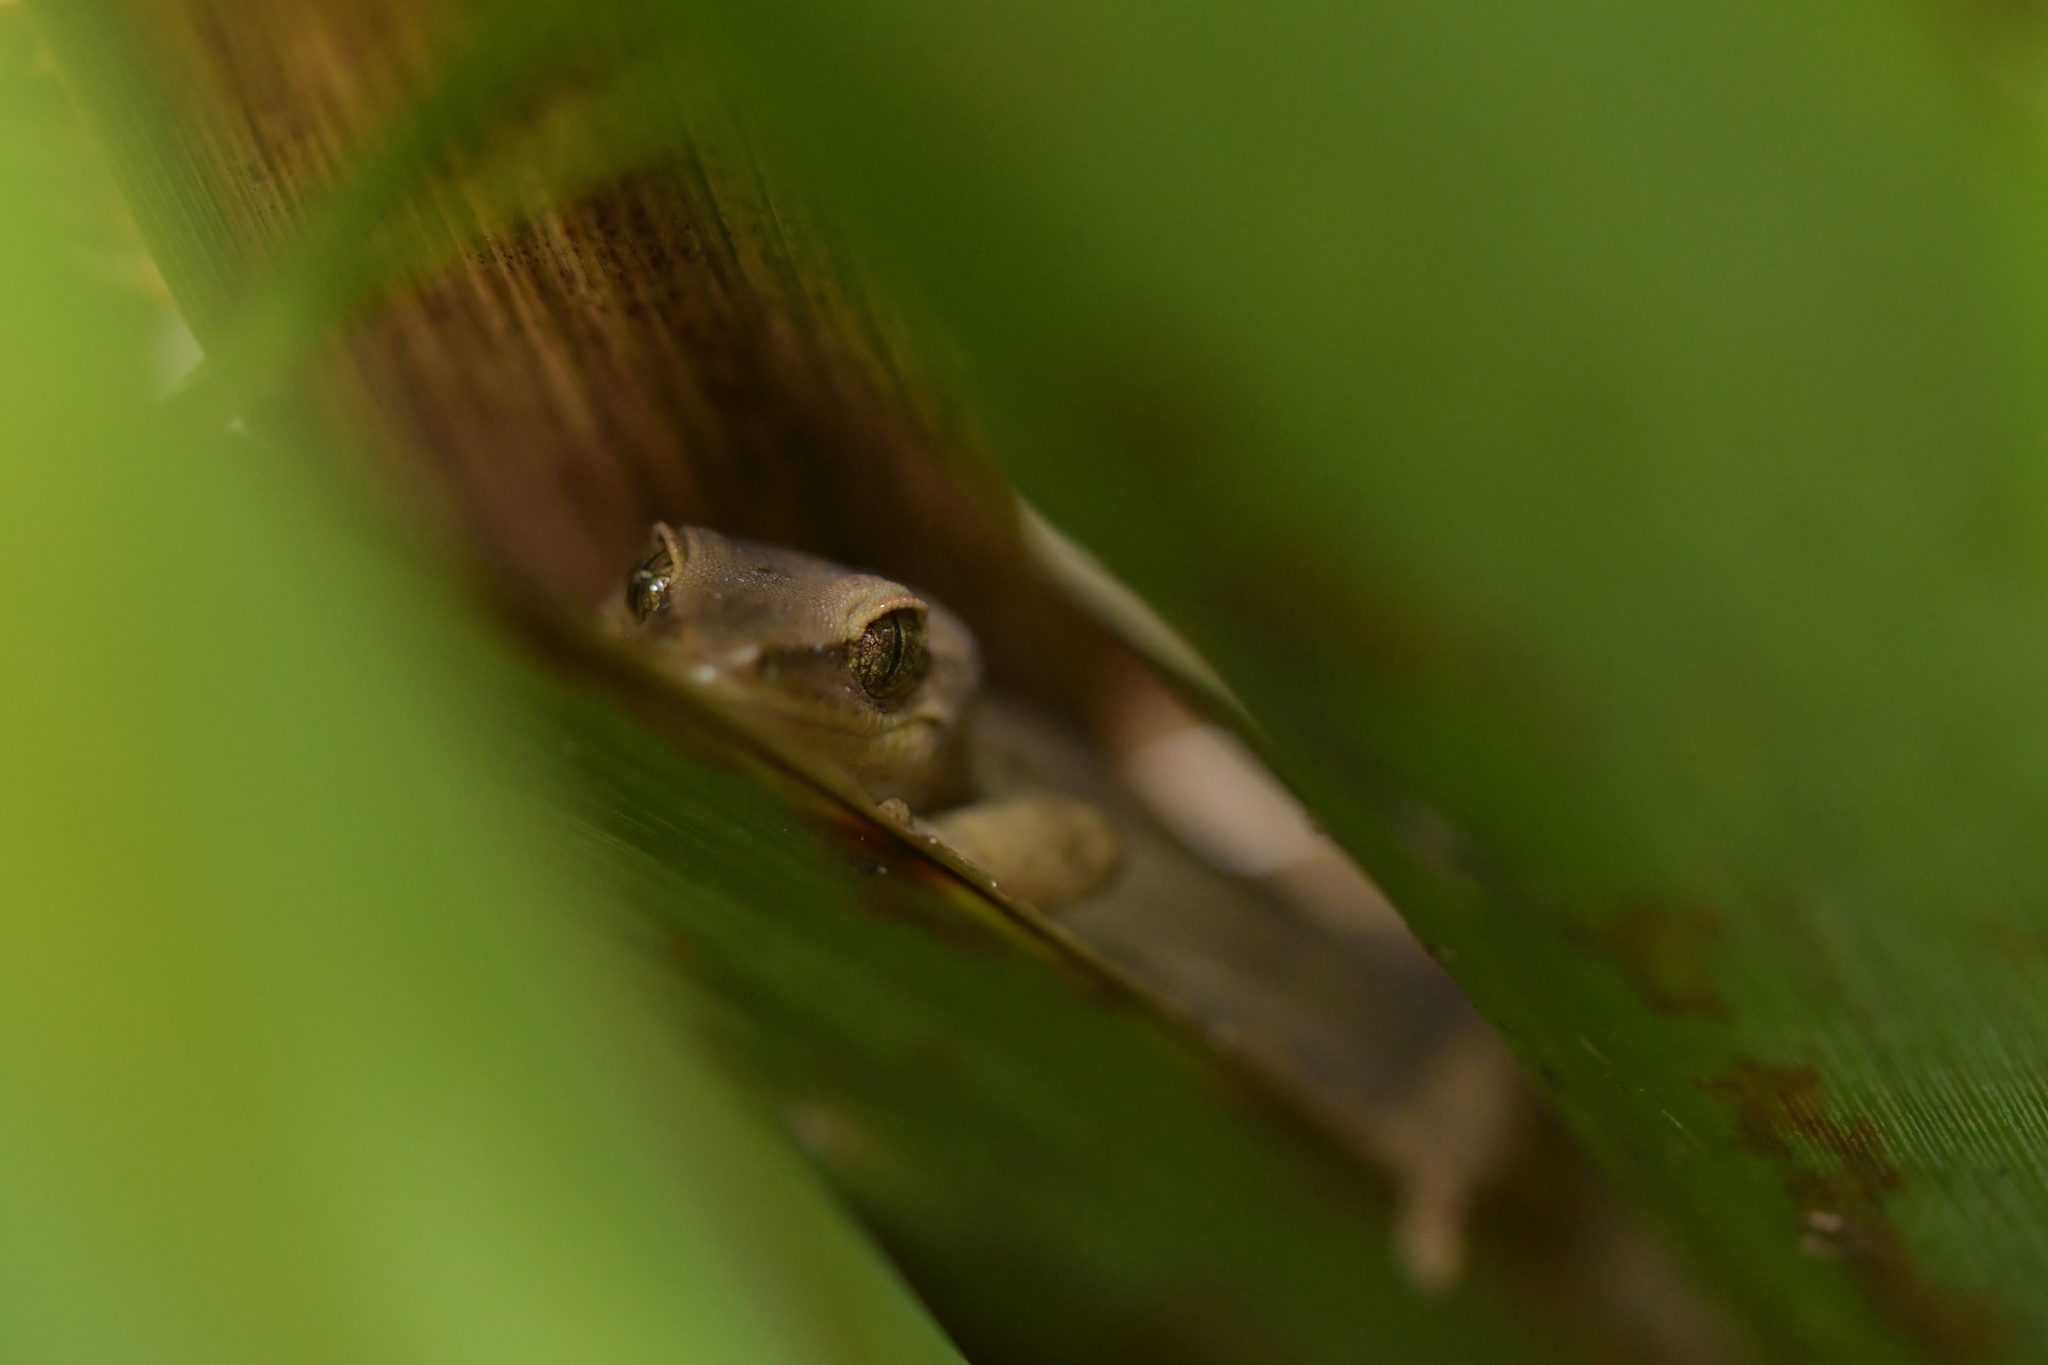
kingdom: Animalia
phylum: Chordata
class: Squamata
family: Diplodactylidae
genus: Woodworthia
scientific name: Woodworthia chrysosiretica
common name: Gold-striped gecko
